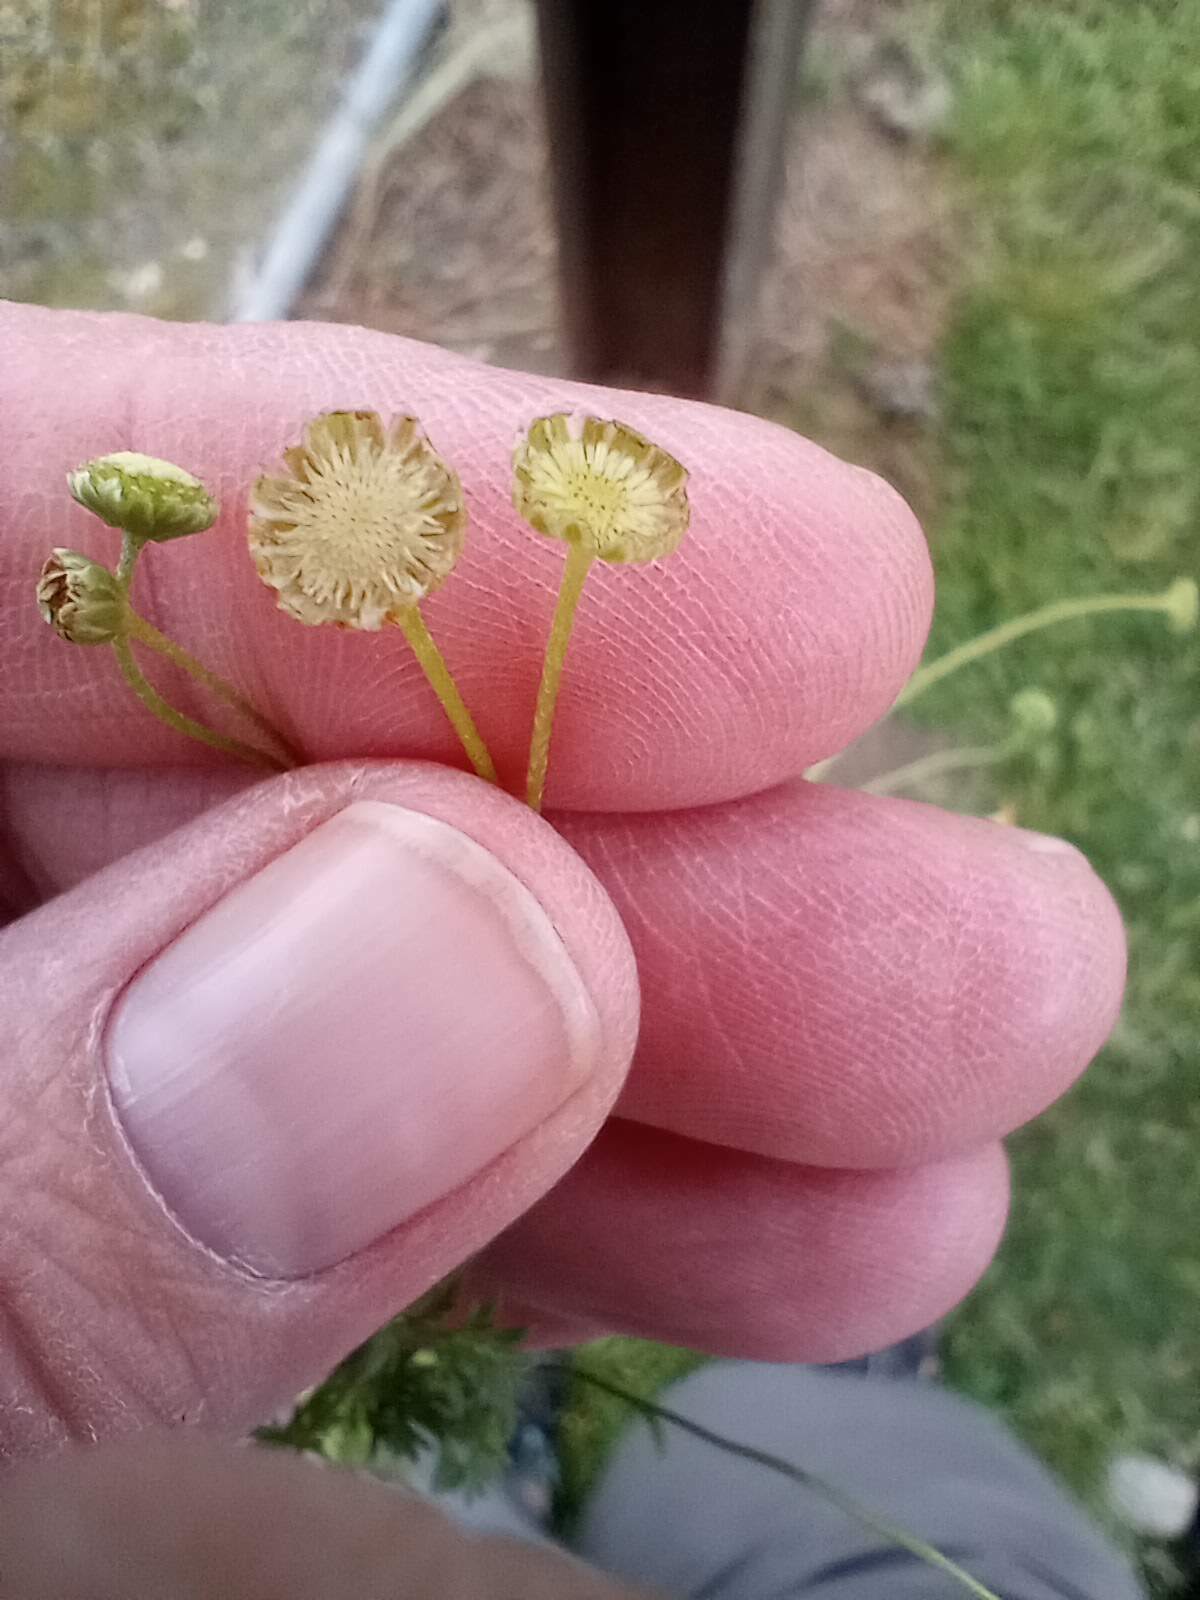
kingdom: Plantae
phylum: Tracheophyta
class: Magnoliopsida
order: Asterales
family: Asteraceae
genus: Cotula
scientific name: Cotula australis
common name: Australian waterbuttons
